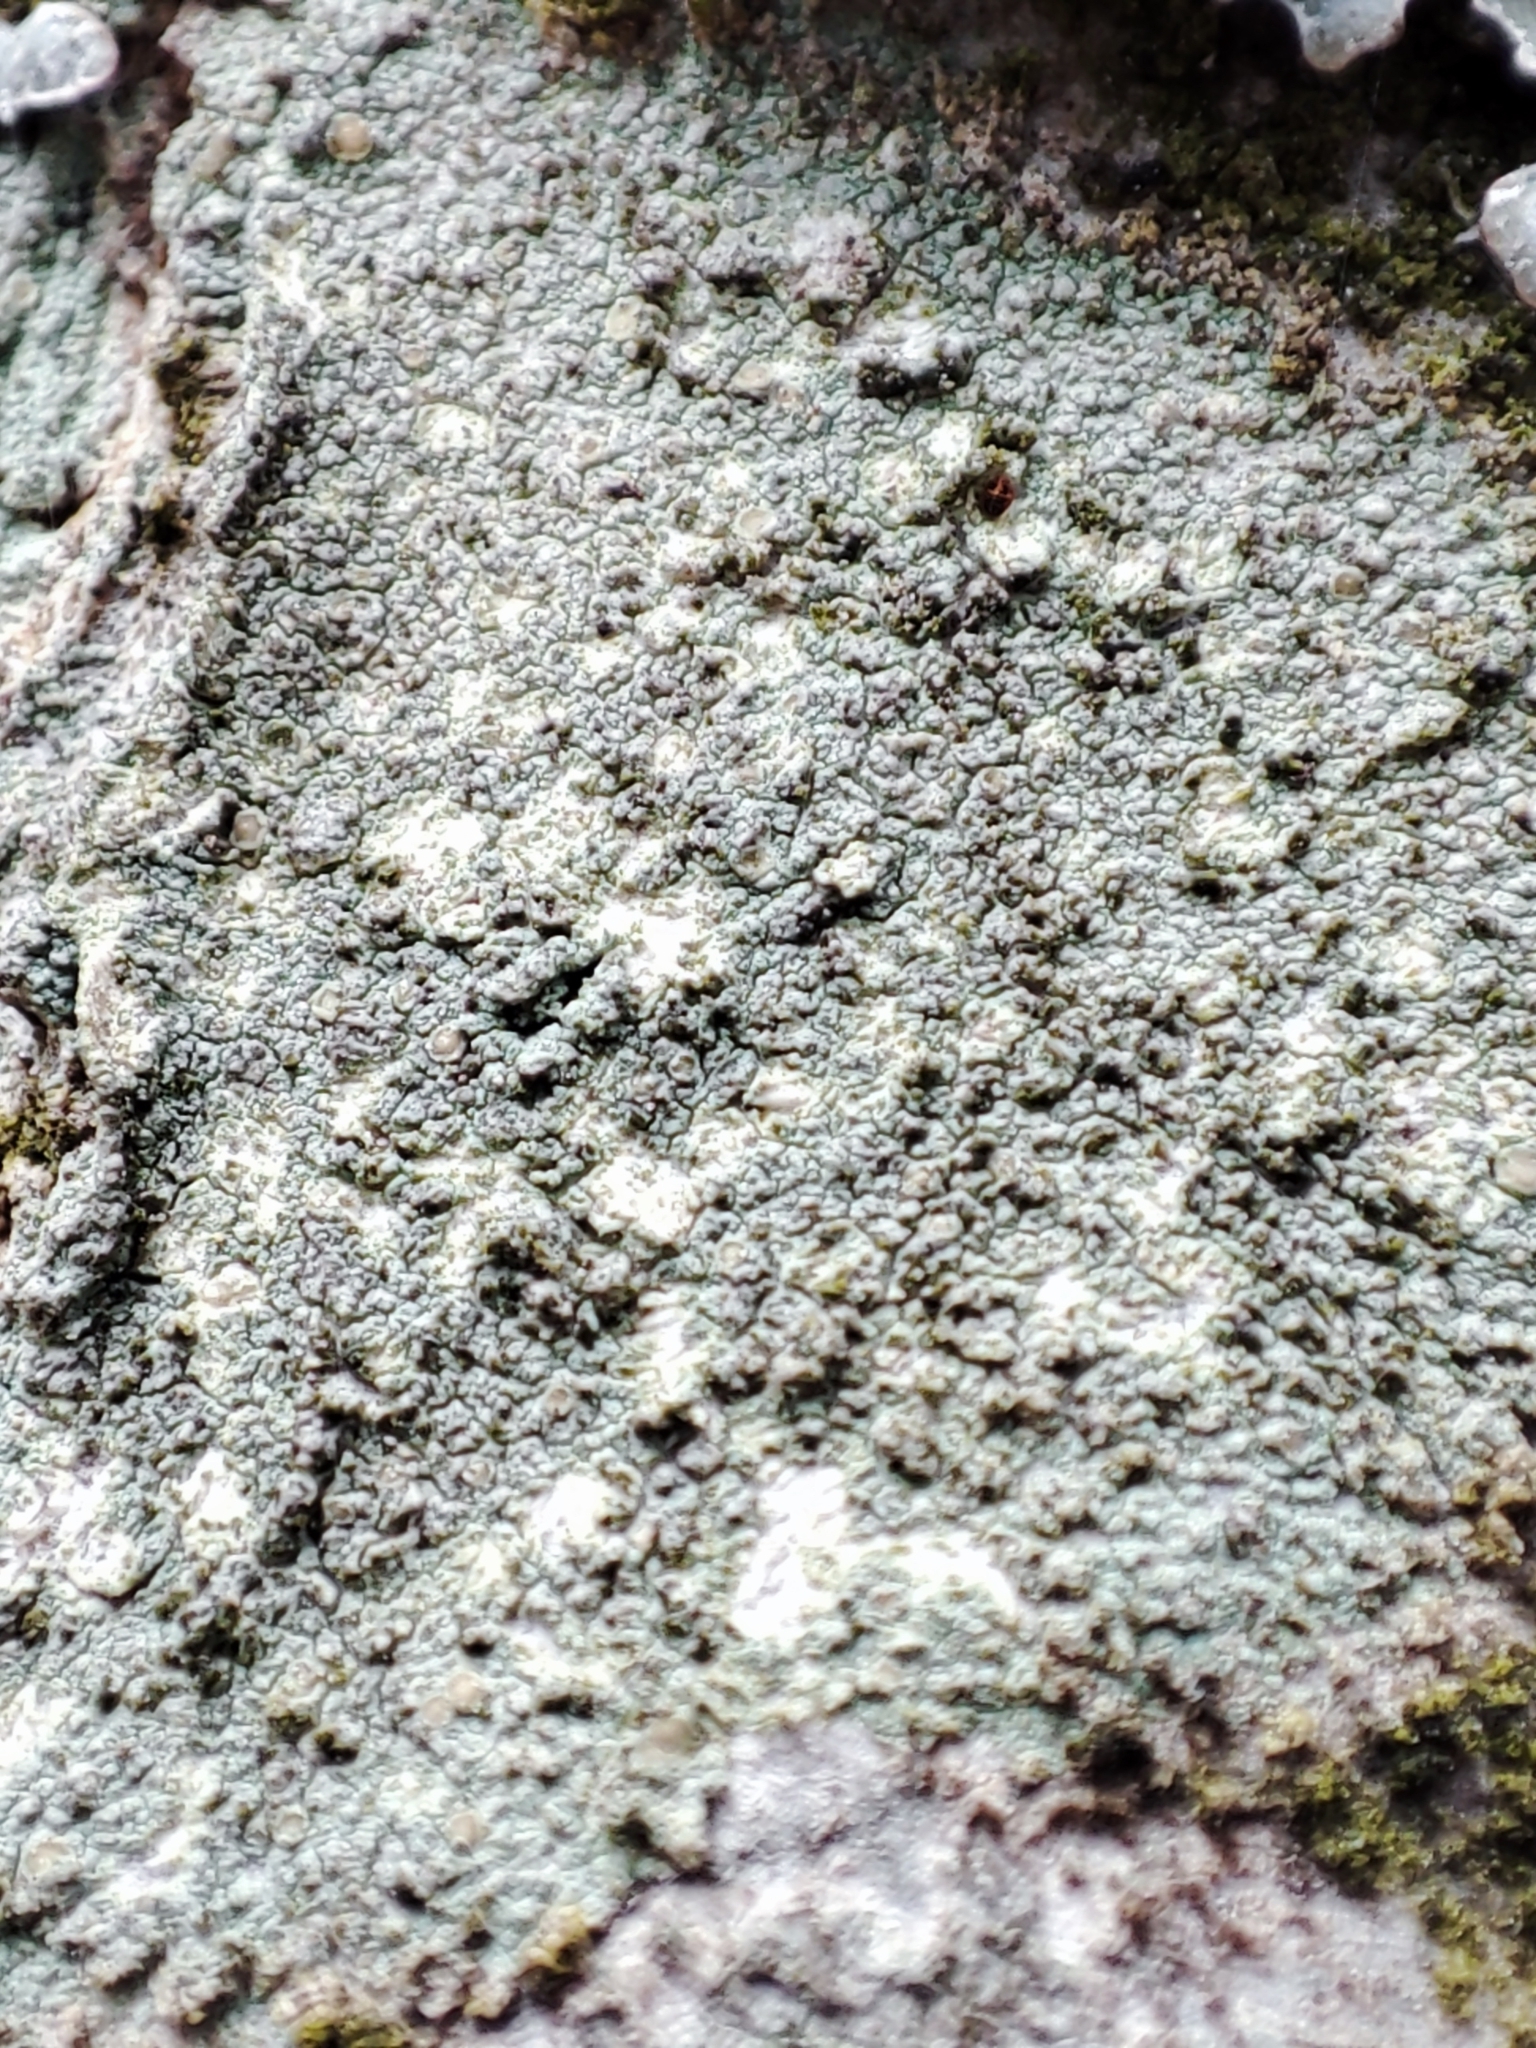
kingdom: Fungi
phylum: Ascomycota
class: Lecanoromycetes
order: Ostropales
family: Phlyctidaceae
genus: Phlyctis
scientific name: Phlyctis argena
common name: Whitewash lichen
